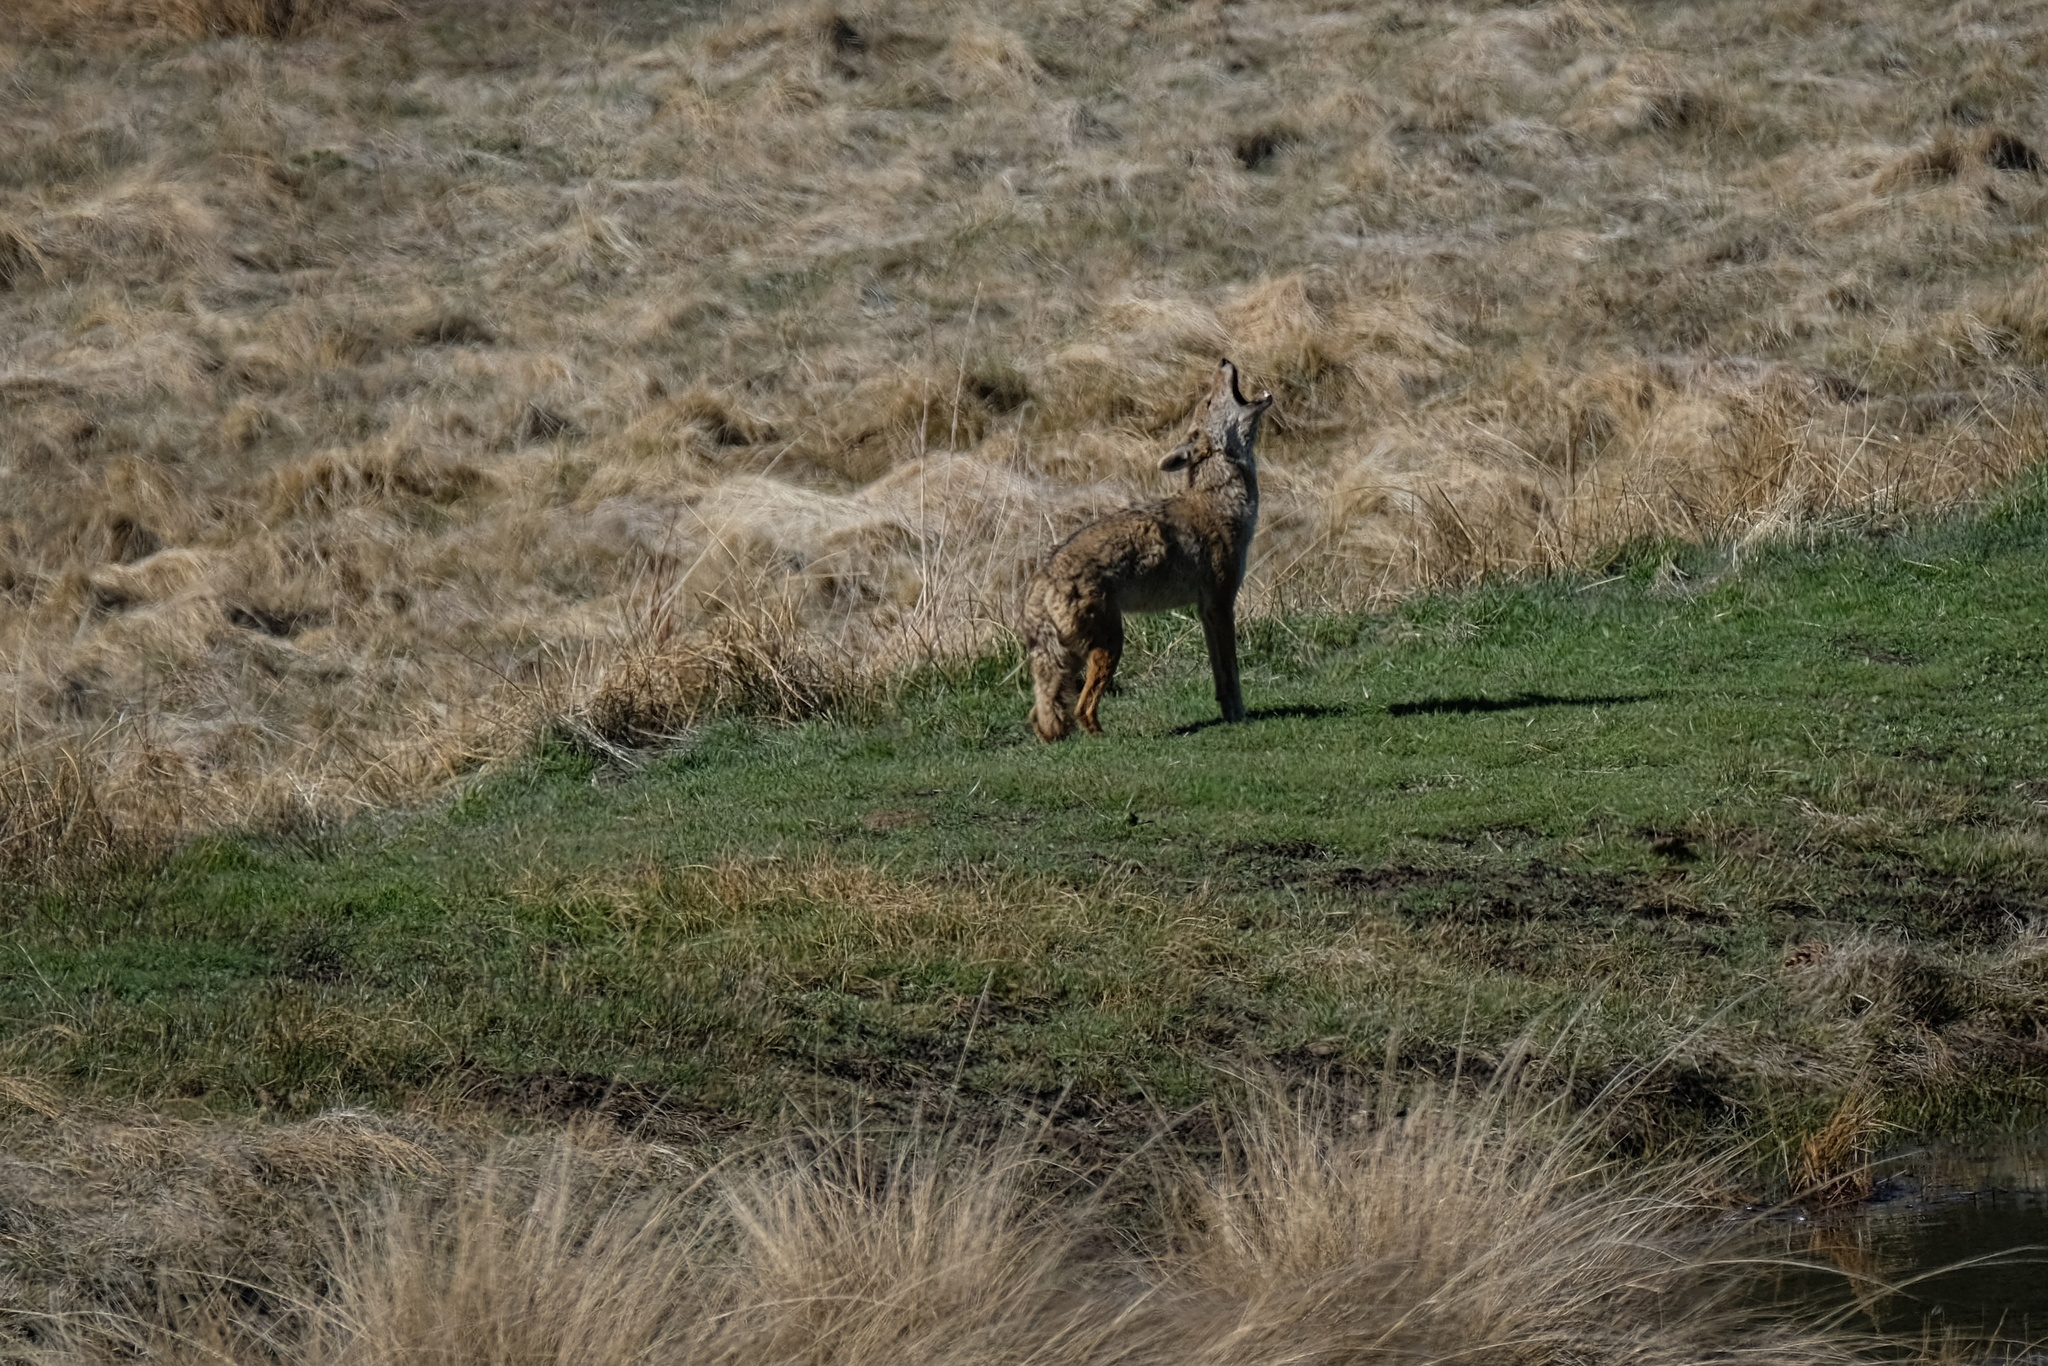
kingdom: Animalia
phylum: Chordata
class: Mammalia
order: Carnivora
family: Canidae
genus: Canis
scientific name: Canis latrans
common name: Coyote
